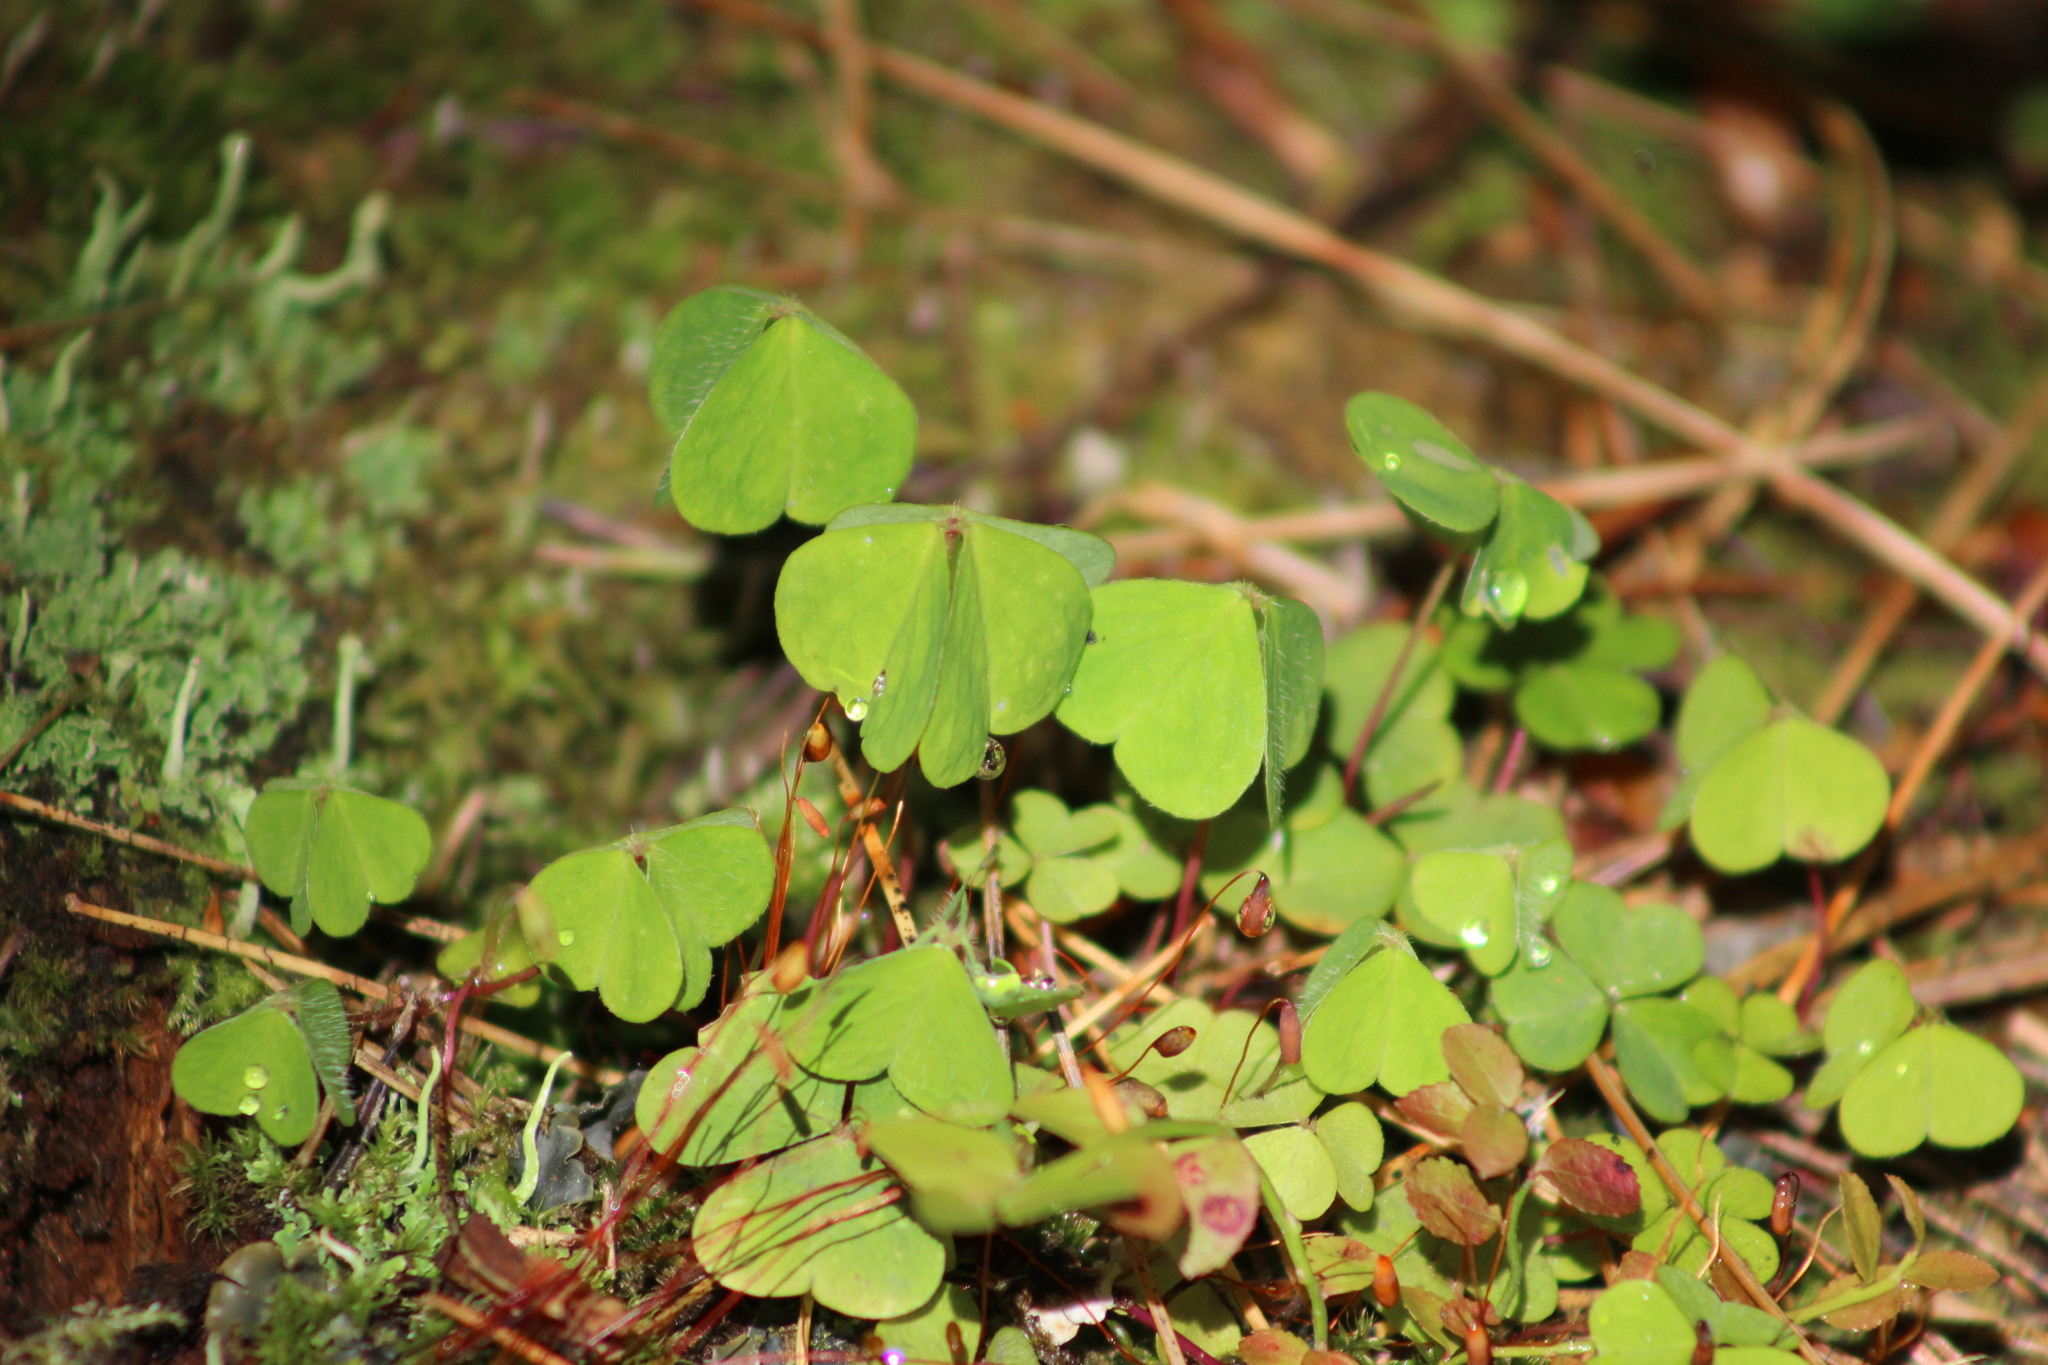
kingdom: Plantae
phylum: Tracheophyta
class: Magnoliopsida
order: Oxalidales
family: Oxalidaceae
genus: Oxalis
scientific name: Oxalis acetosella
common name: Wood-sorrel
